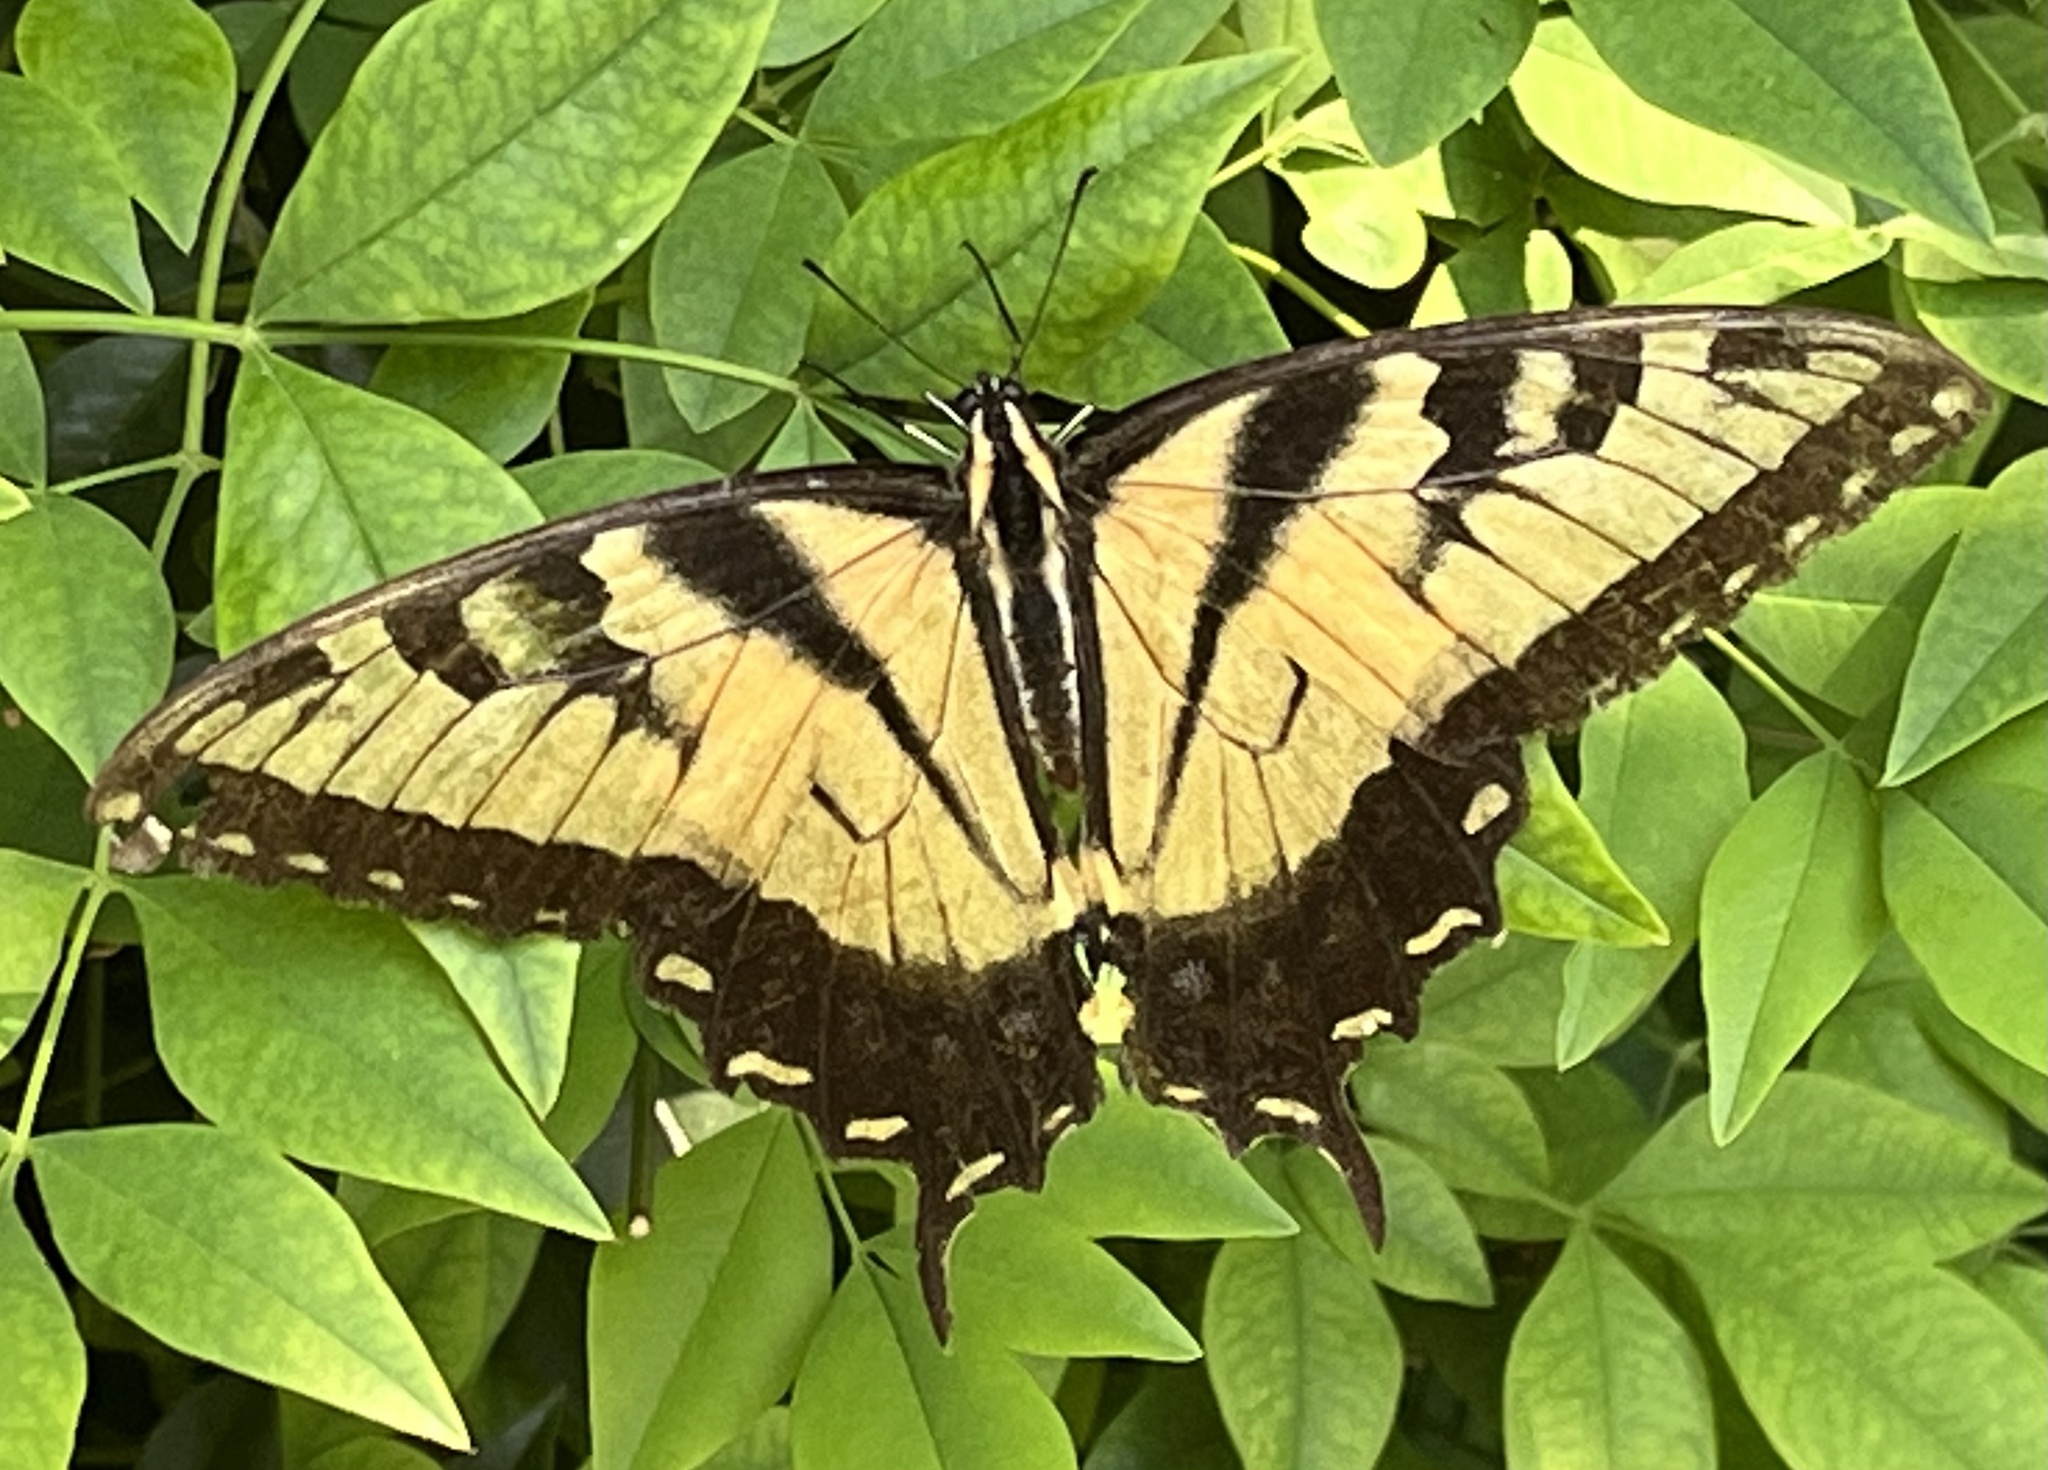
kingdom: Animalia
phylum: Arthropoda
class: Insecta
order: Lepidoptera
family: Papilionidae
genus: Papilio
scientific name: Papilio glaucus
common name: Tiger swallowtail
